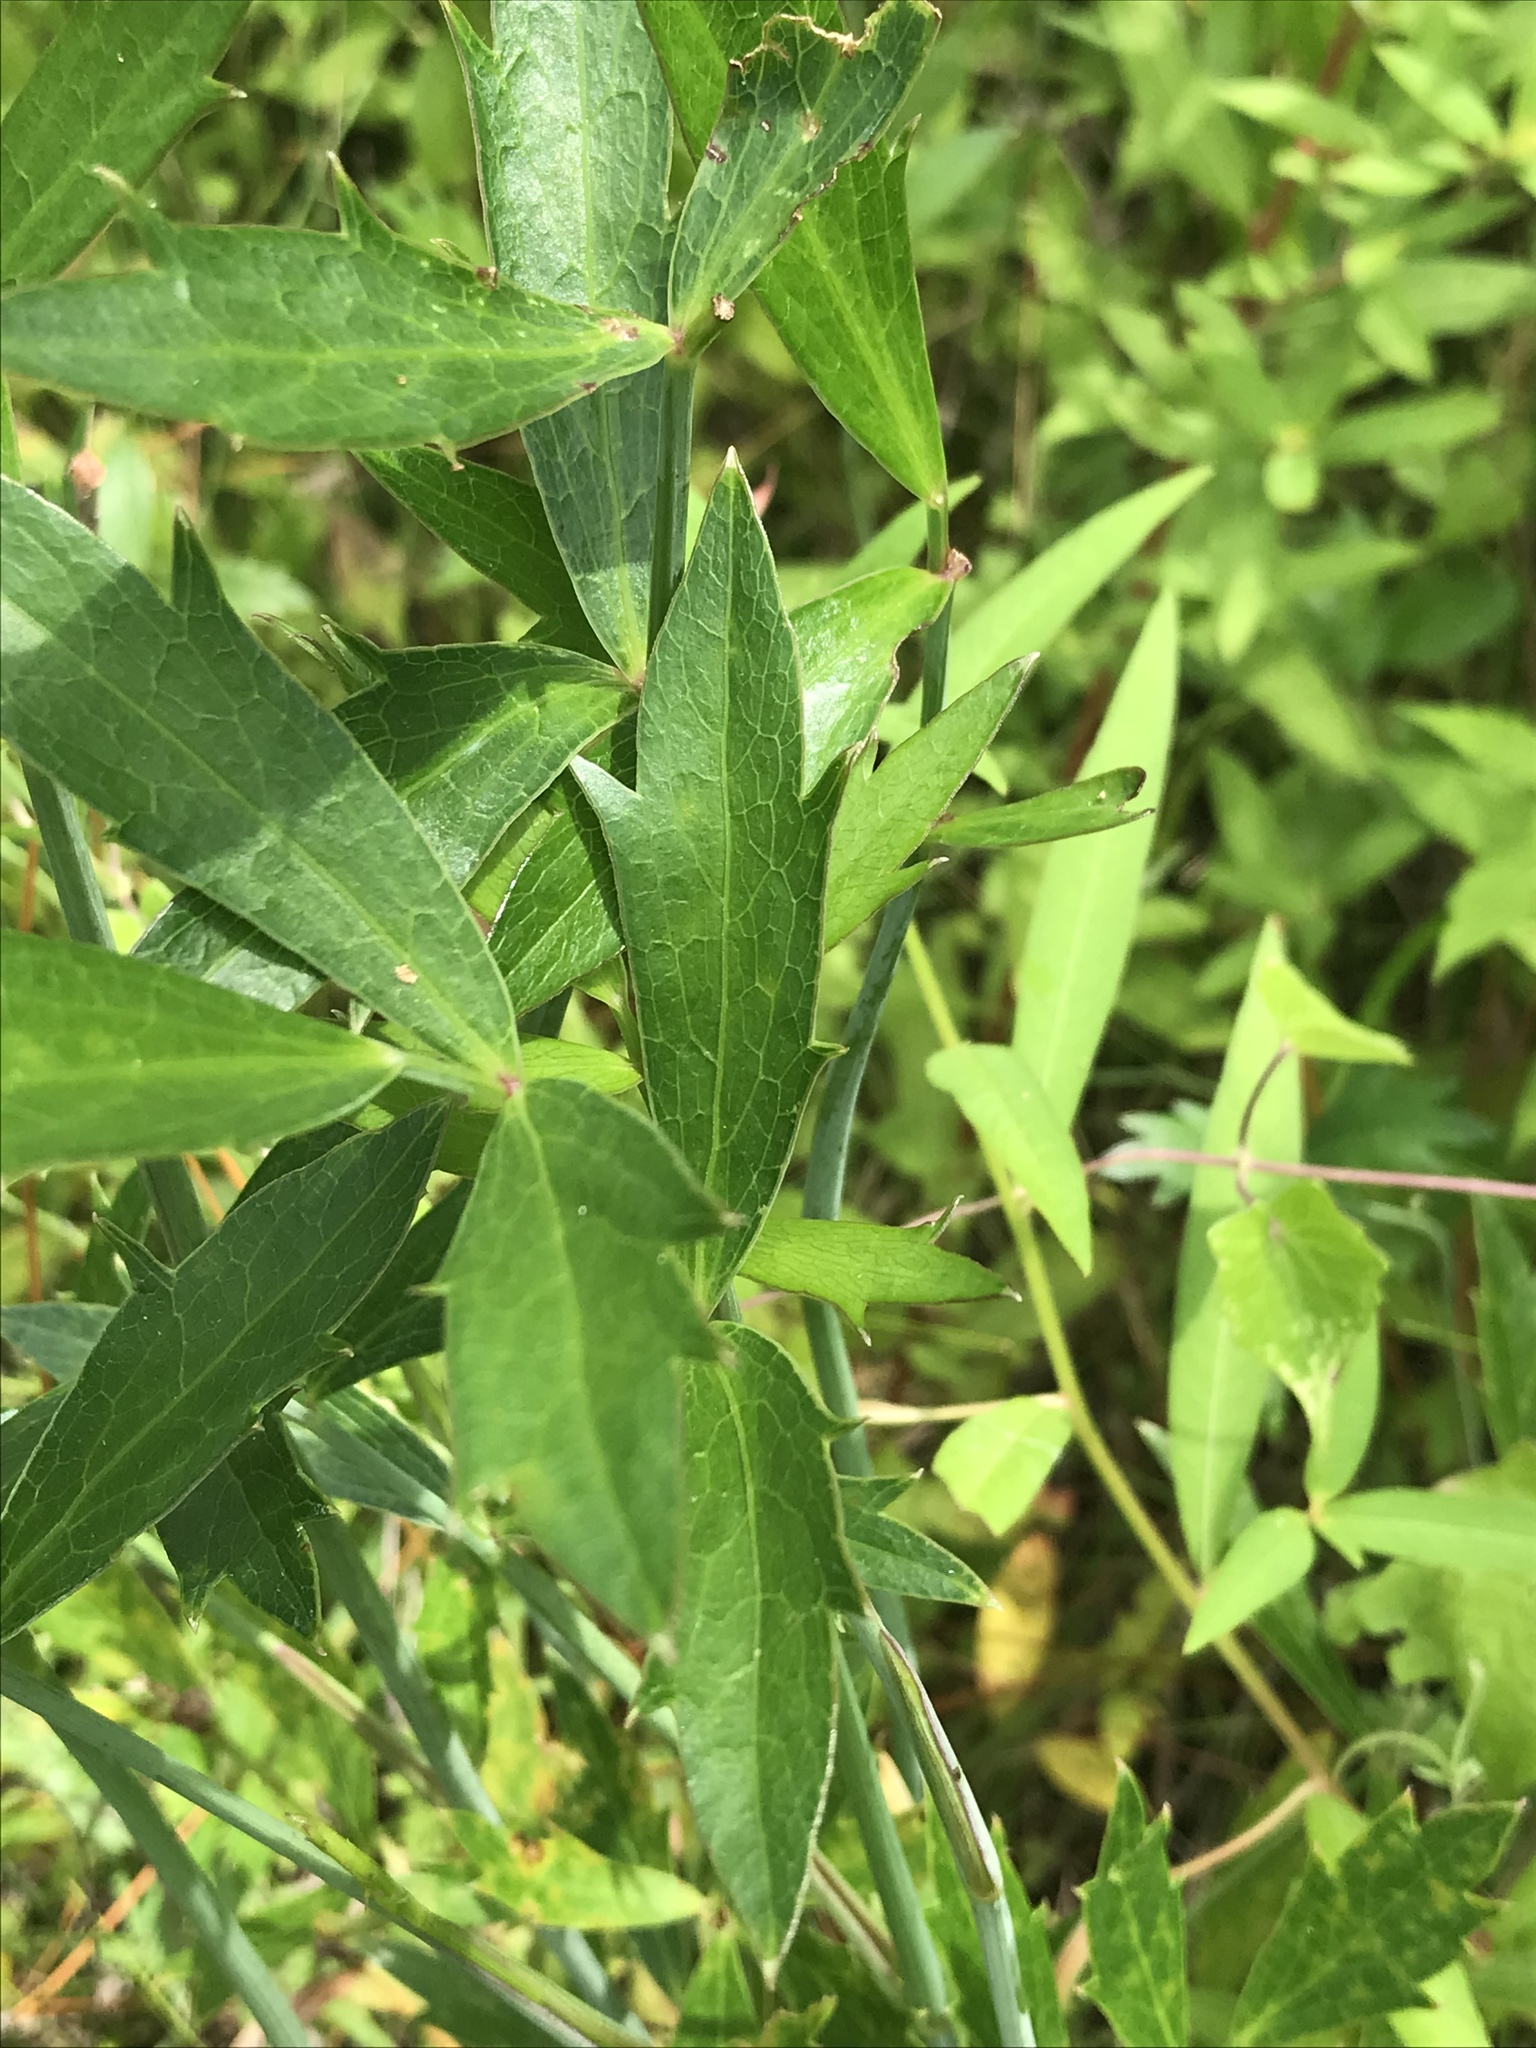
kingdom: Plantae
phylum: Tracheophyta
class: Magnoliopsida
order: Apiales
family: Apiaceae
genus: Oxypolis
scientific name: Oxypolis rigidior
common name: Cowbane
